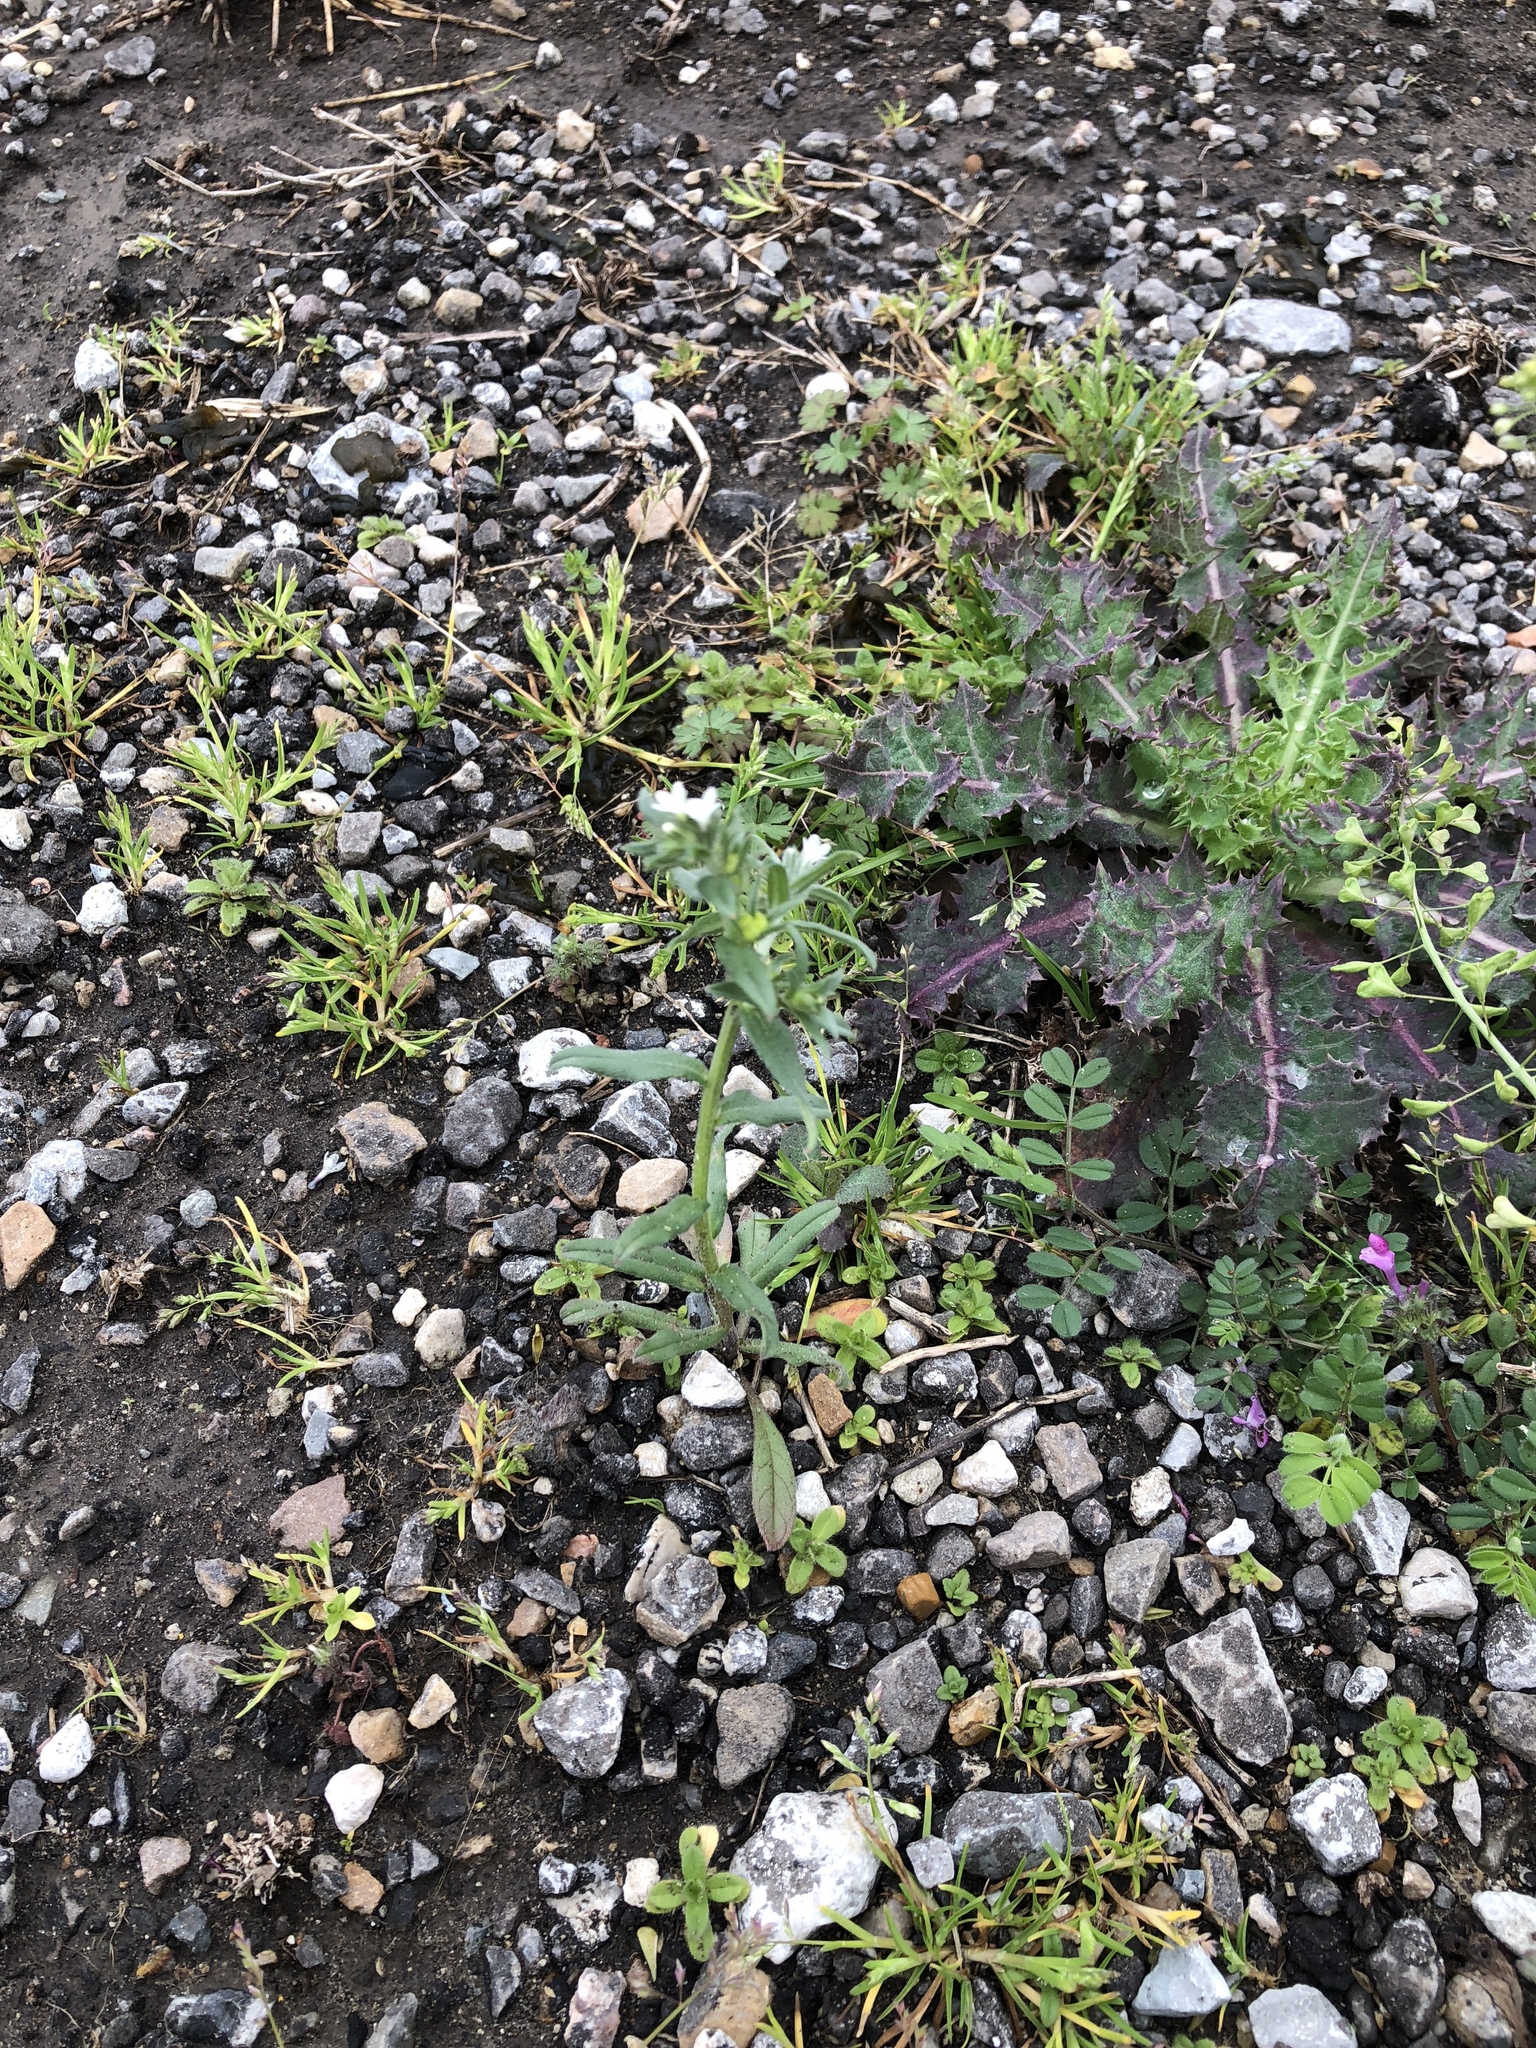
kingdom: Plantae
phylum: Tracheophyta
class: Magnoliopsida
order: Boraginales
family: Boraginaceae
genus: Buglossoides
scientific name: Buglossoides arvensis
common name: Corn gromwell
